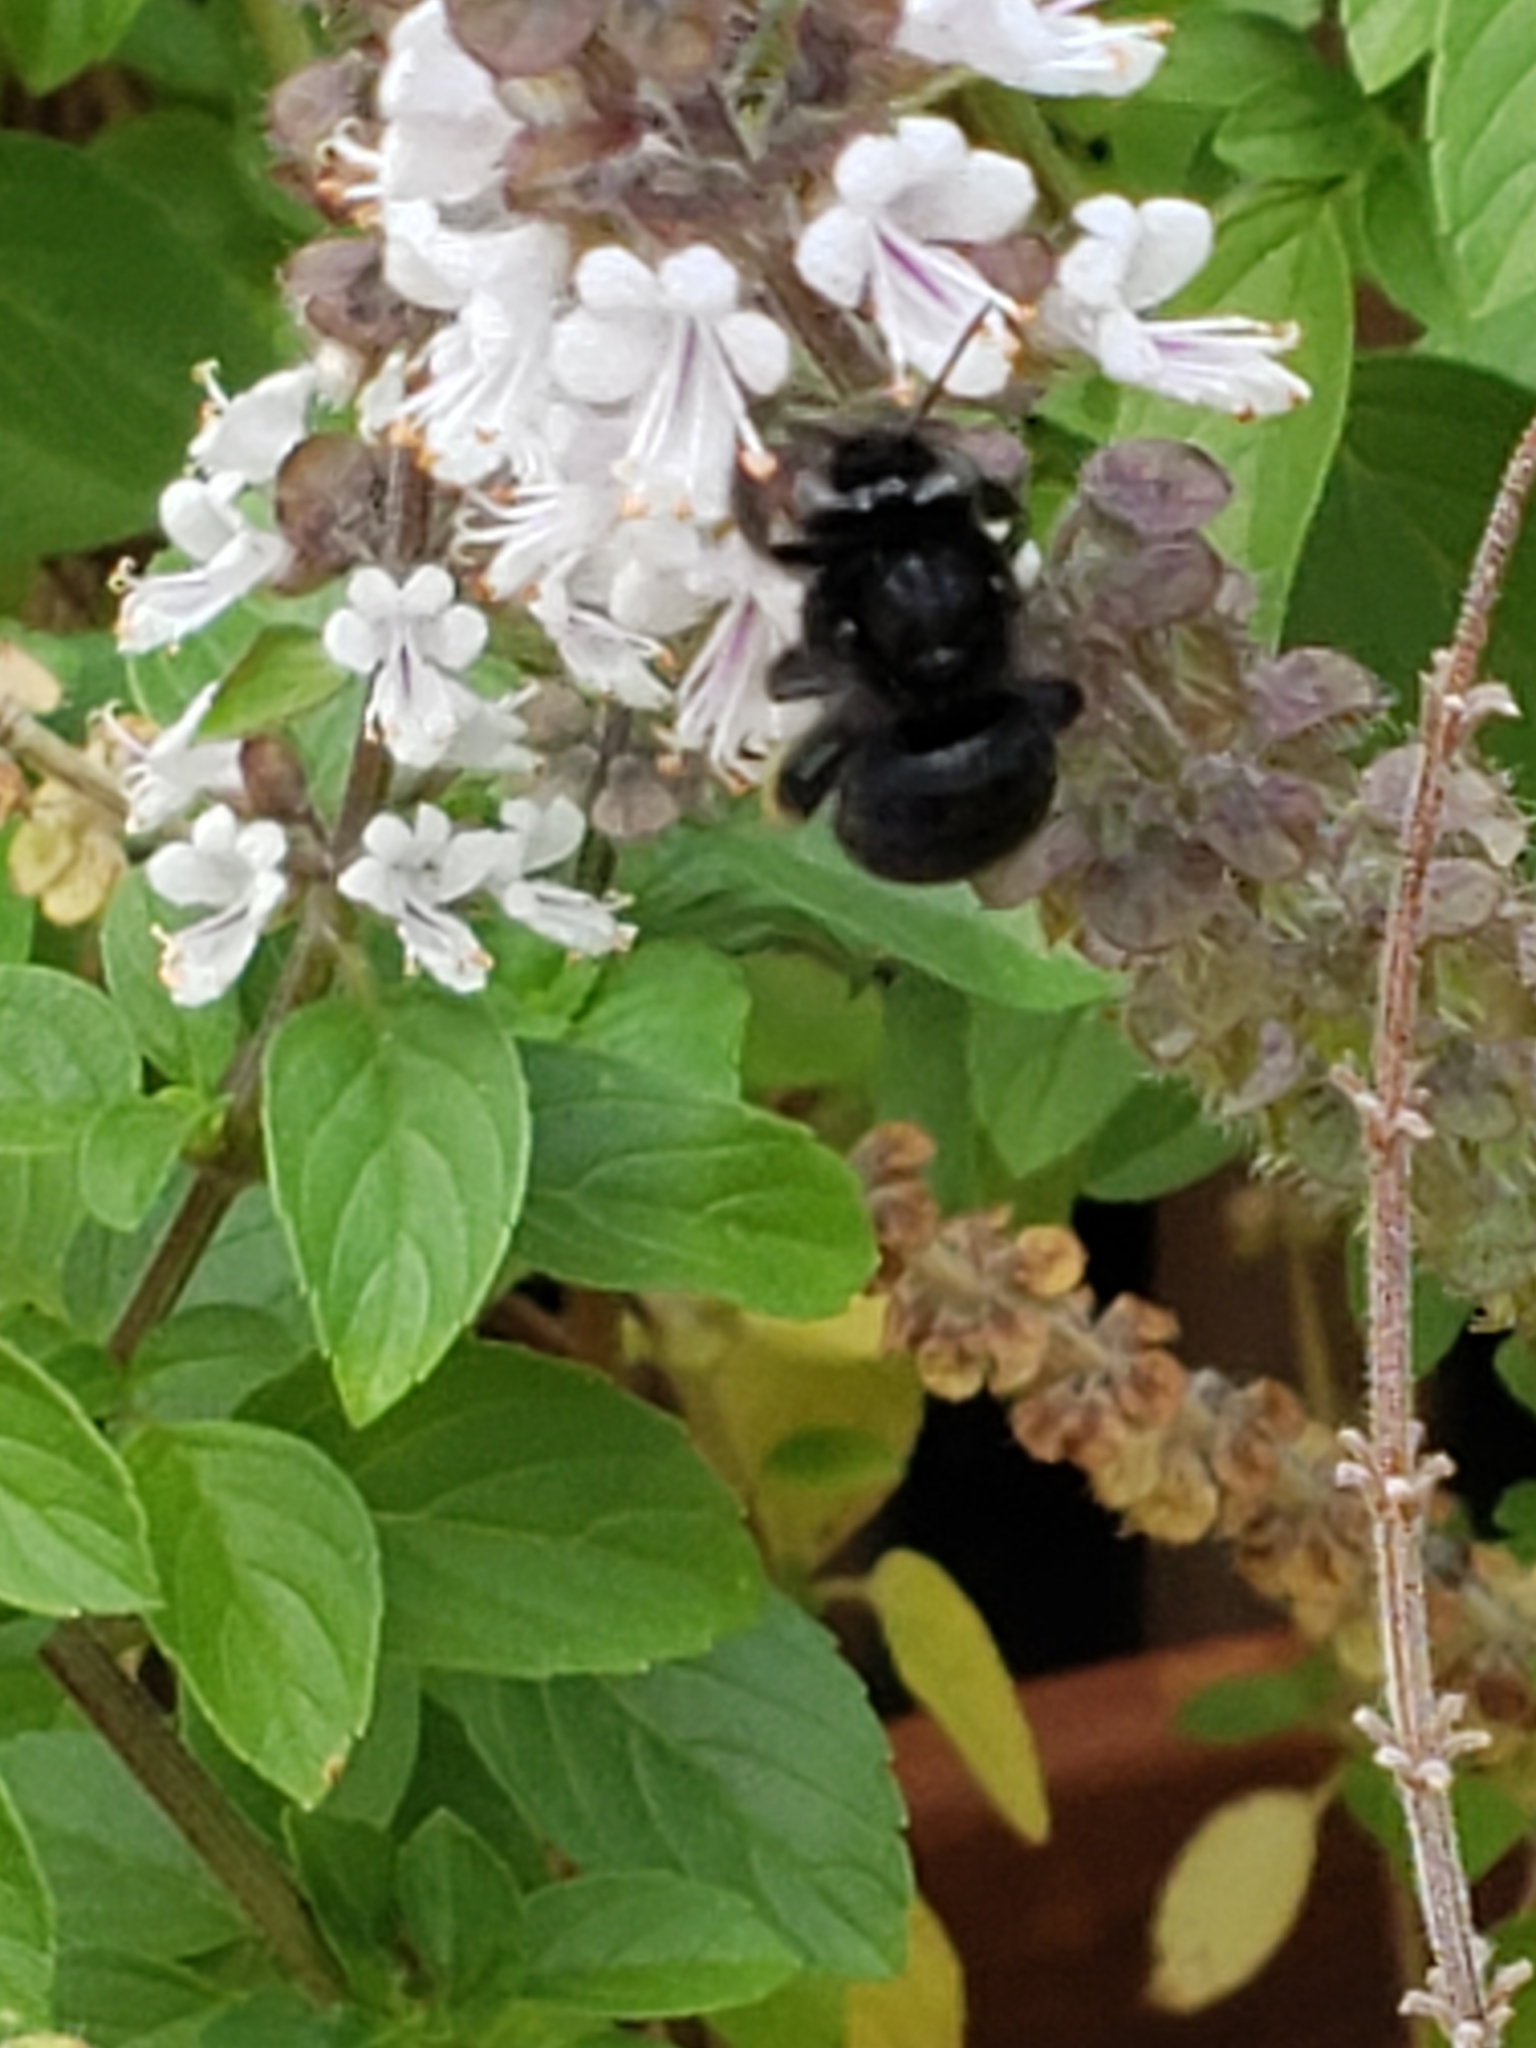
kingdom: Animalia
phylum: Arthropoda
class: Insecta
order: Hymenoptera
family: Apidae
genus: Melissodes
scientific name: Melissodes bimaculatus
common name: Two-spotted long-horned bee
